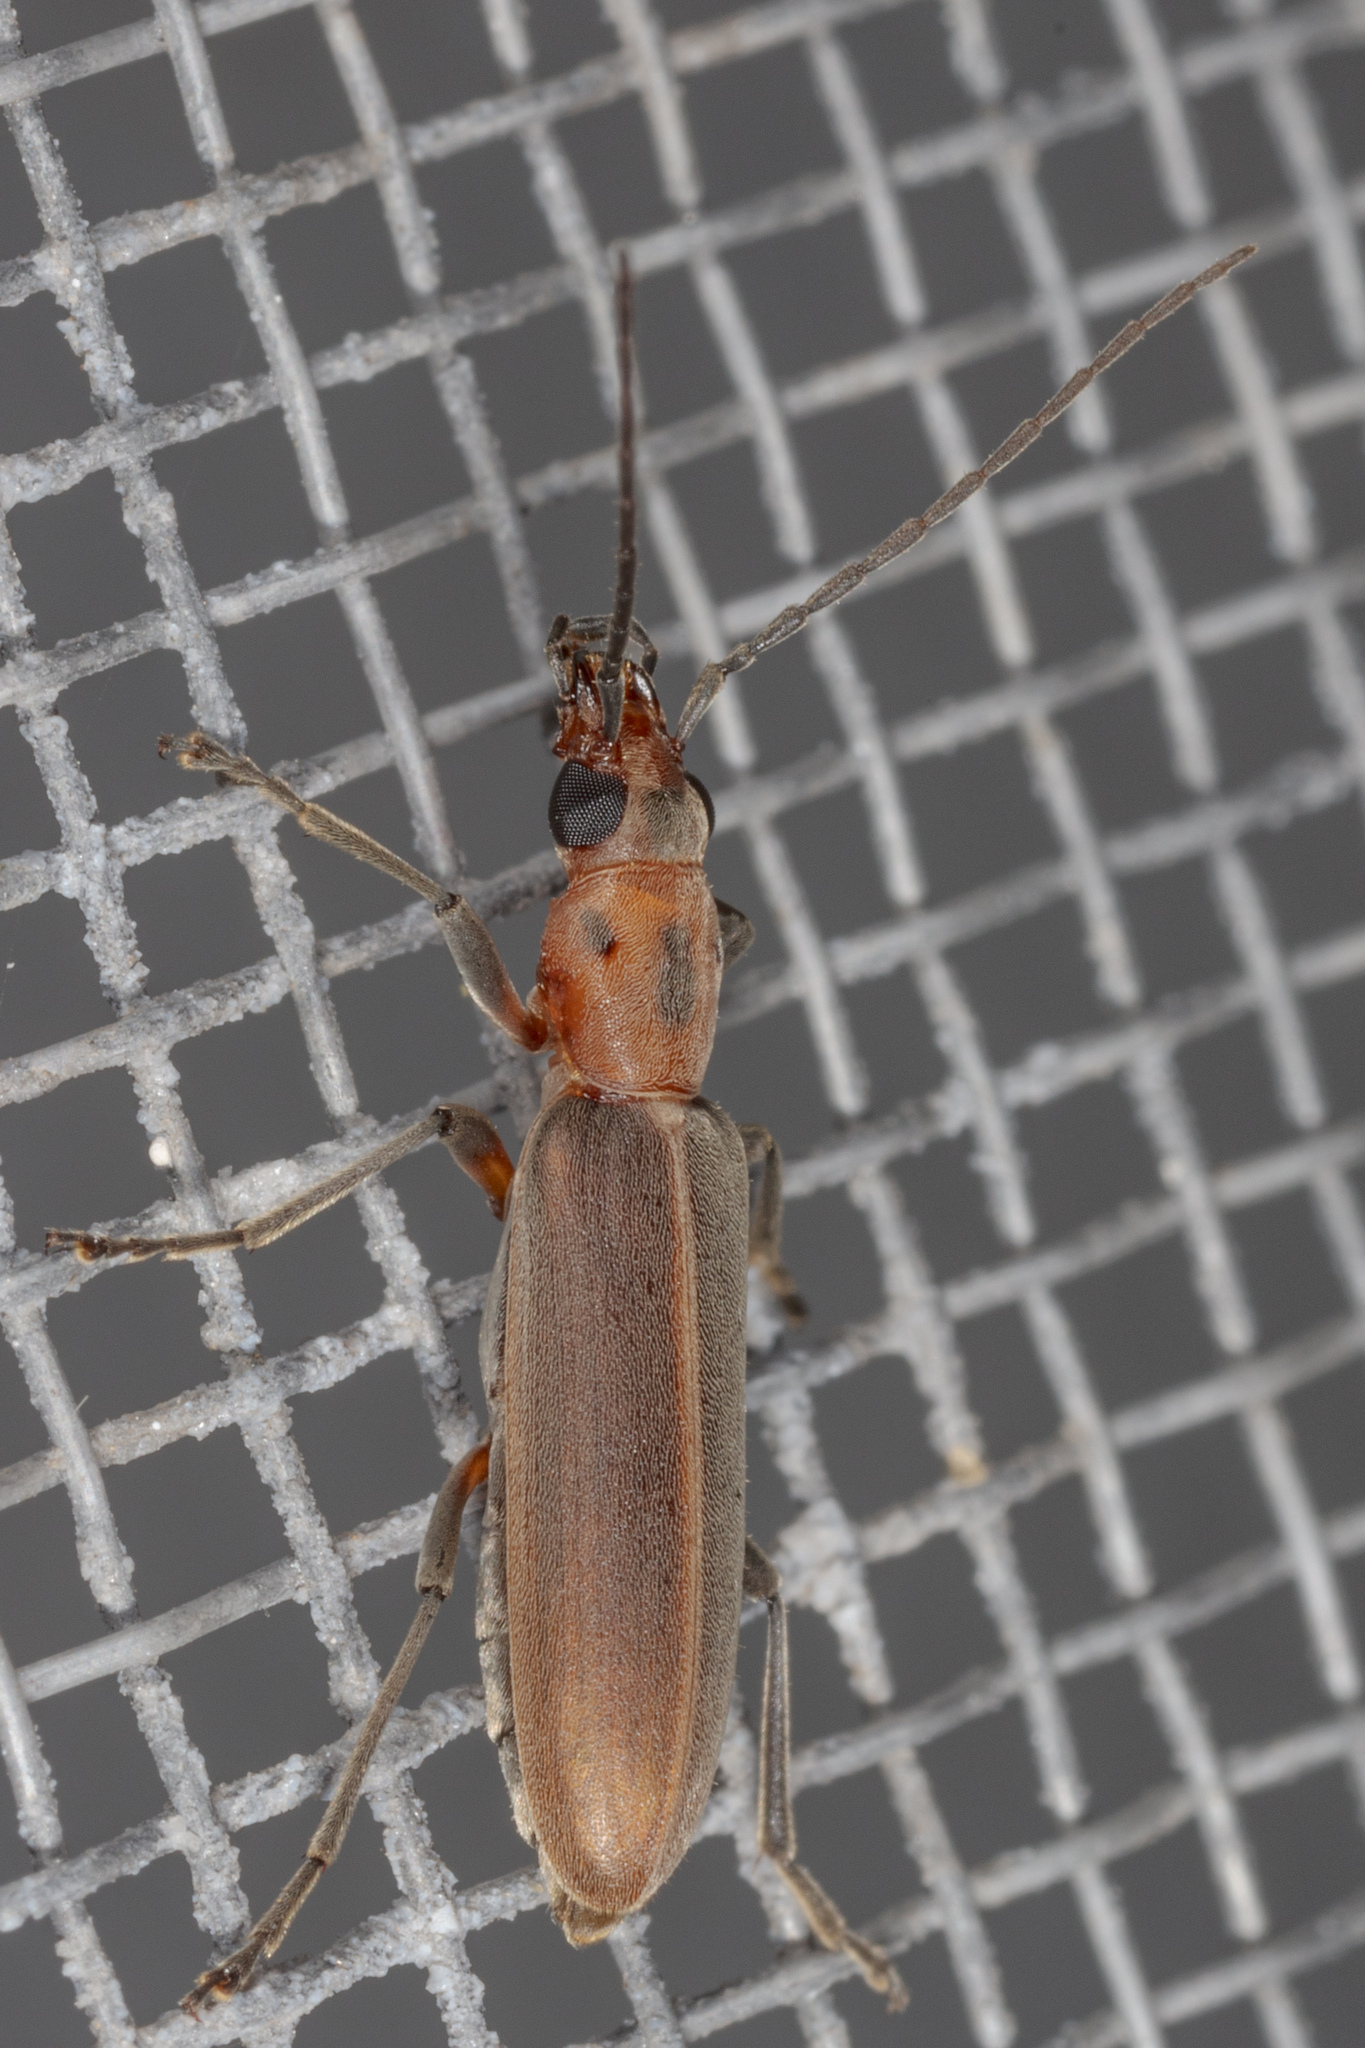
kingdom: Animalia
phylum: Arthropoda
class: Insecta
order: Coleoptera
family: Oedemeridae
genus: Oxacis
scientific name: Oxacis trimaculata
